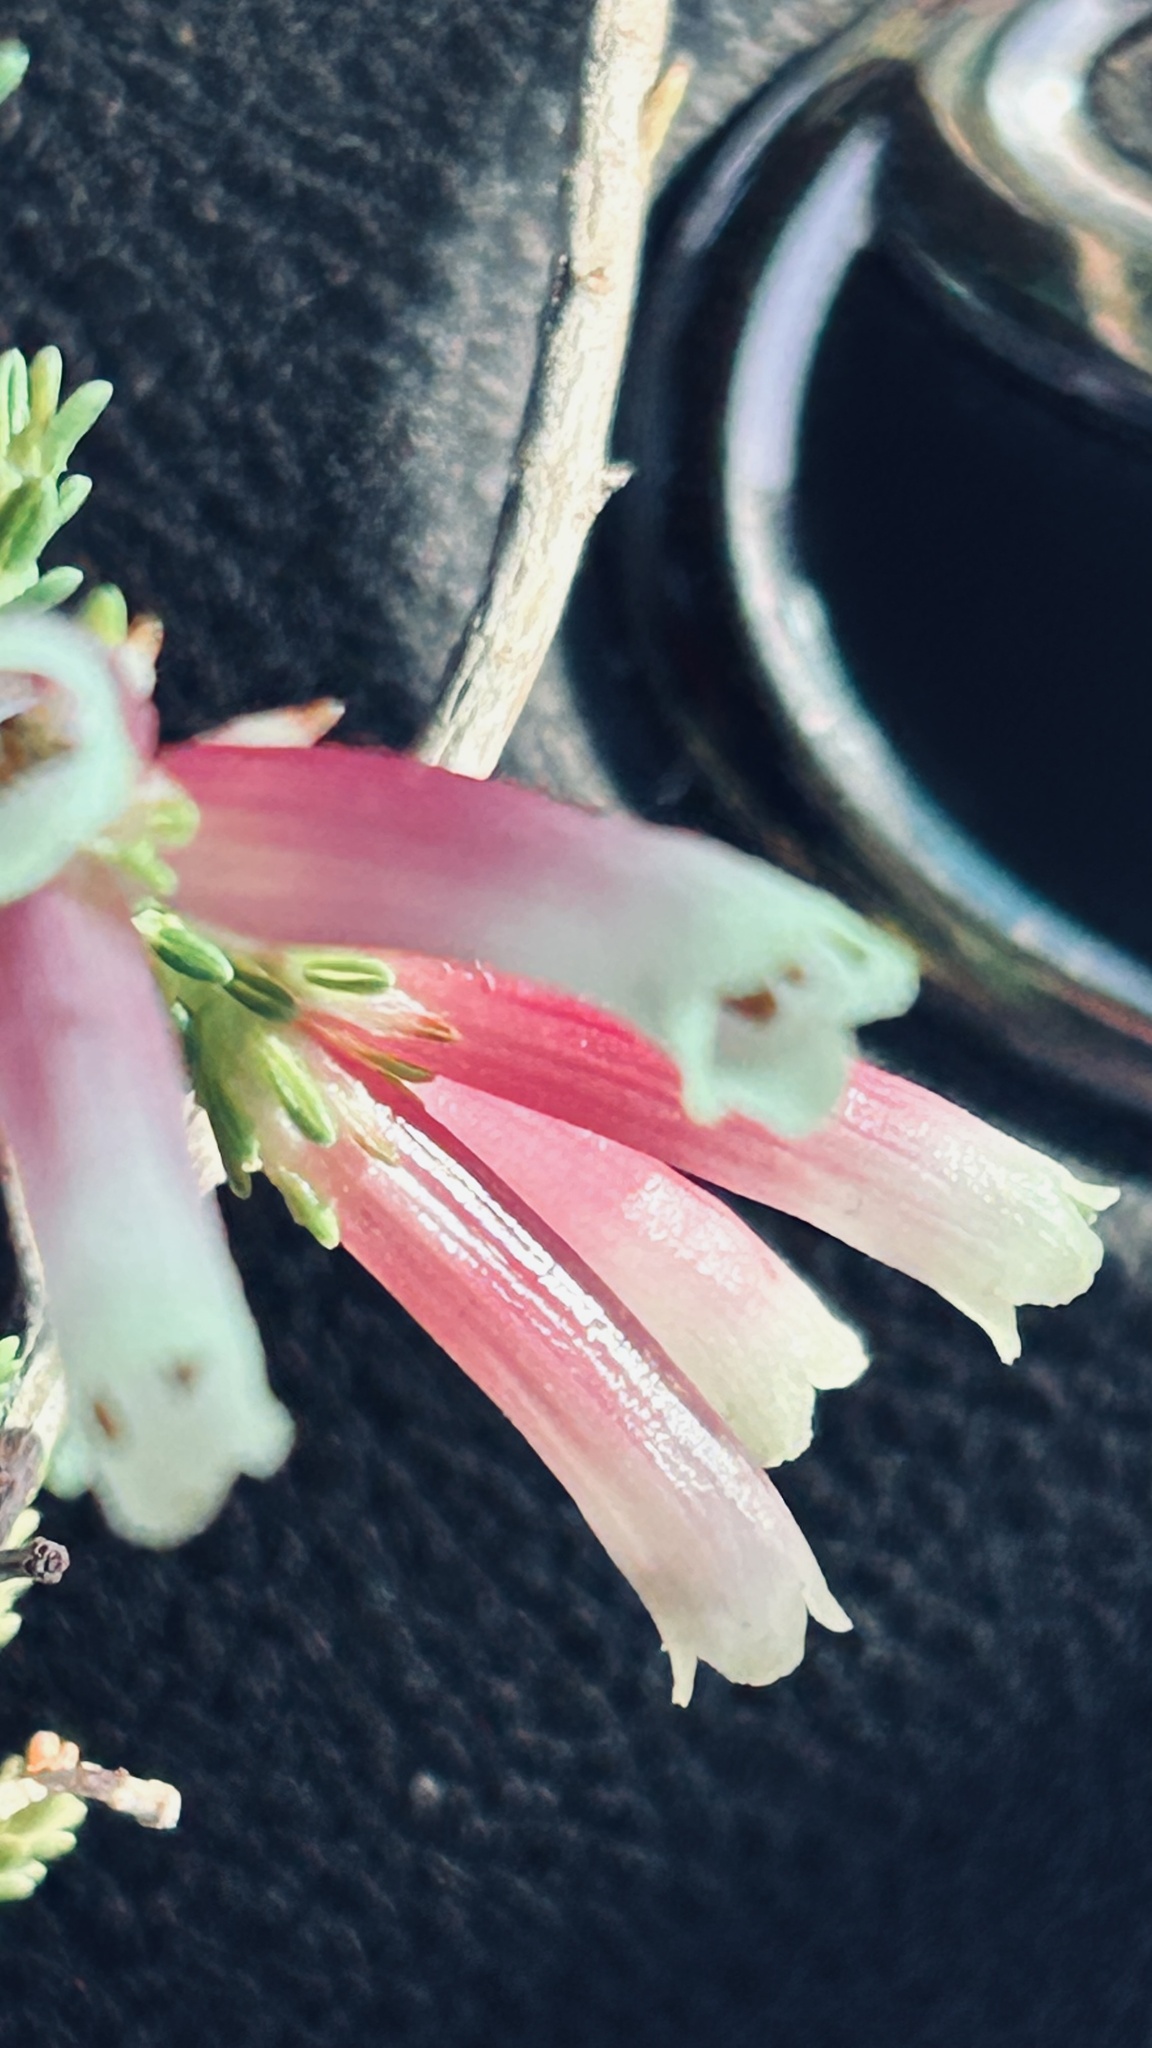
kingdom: Plantae
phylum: Tracheophyta
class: Magnoliopsida
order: Ericales
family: Ericaceae
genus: Erica
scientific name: Erica discolor
